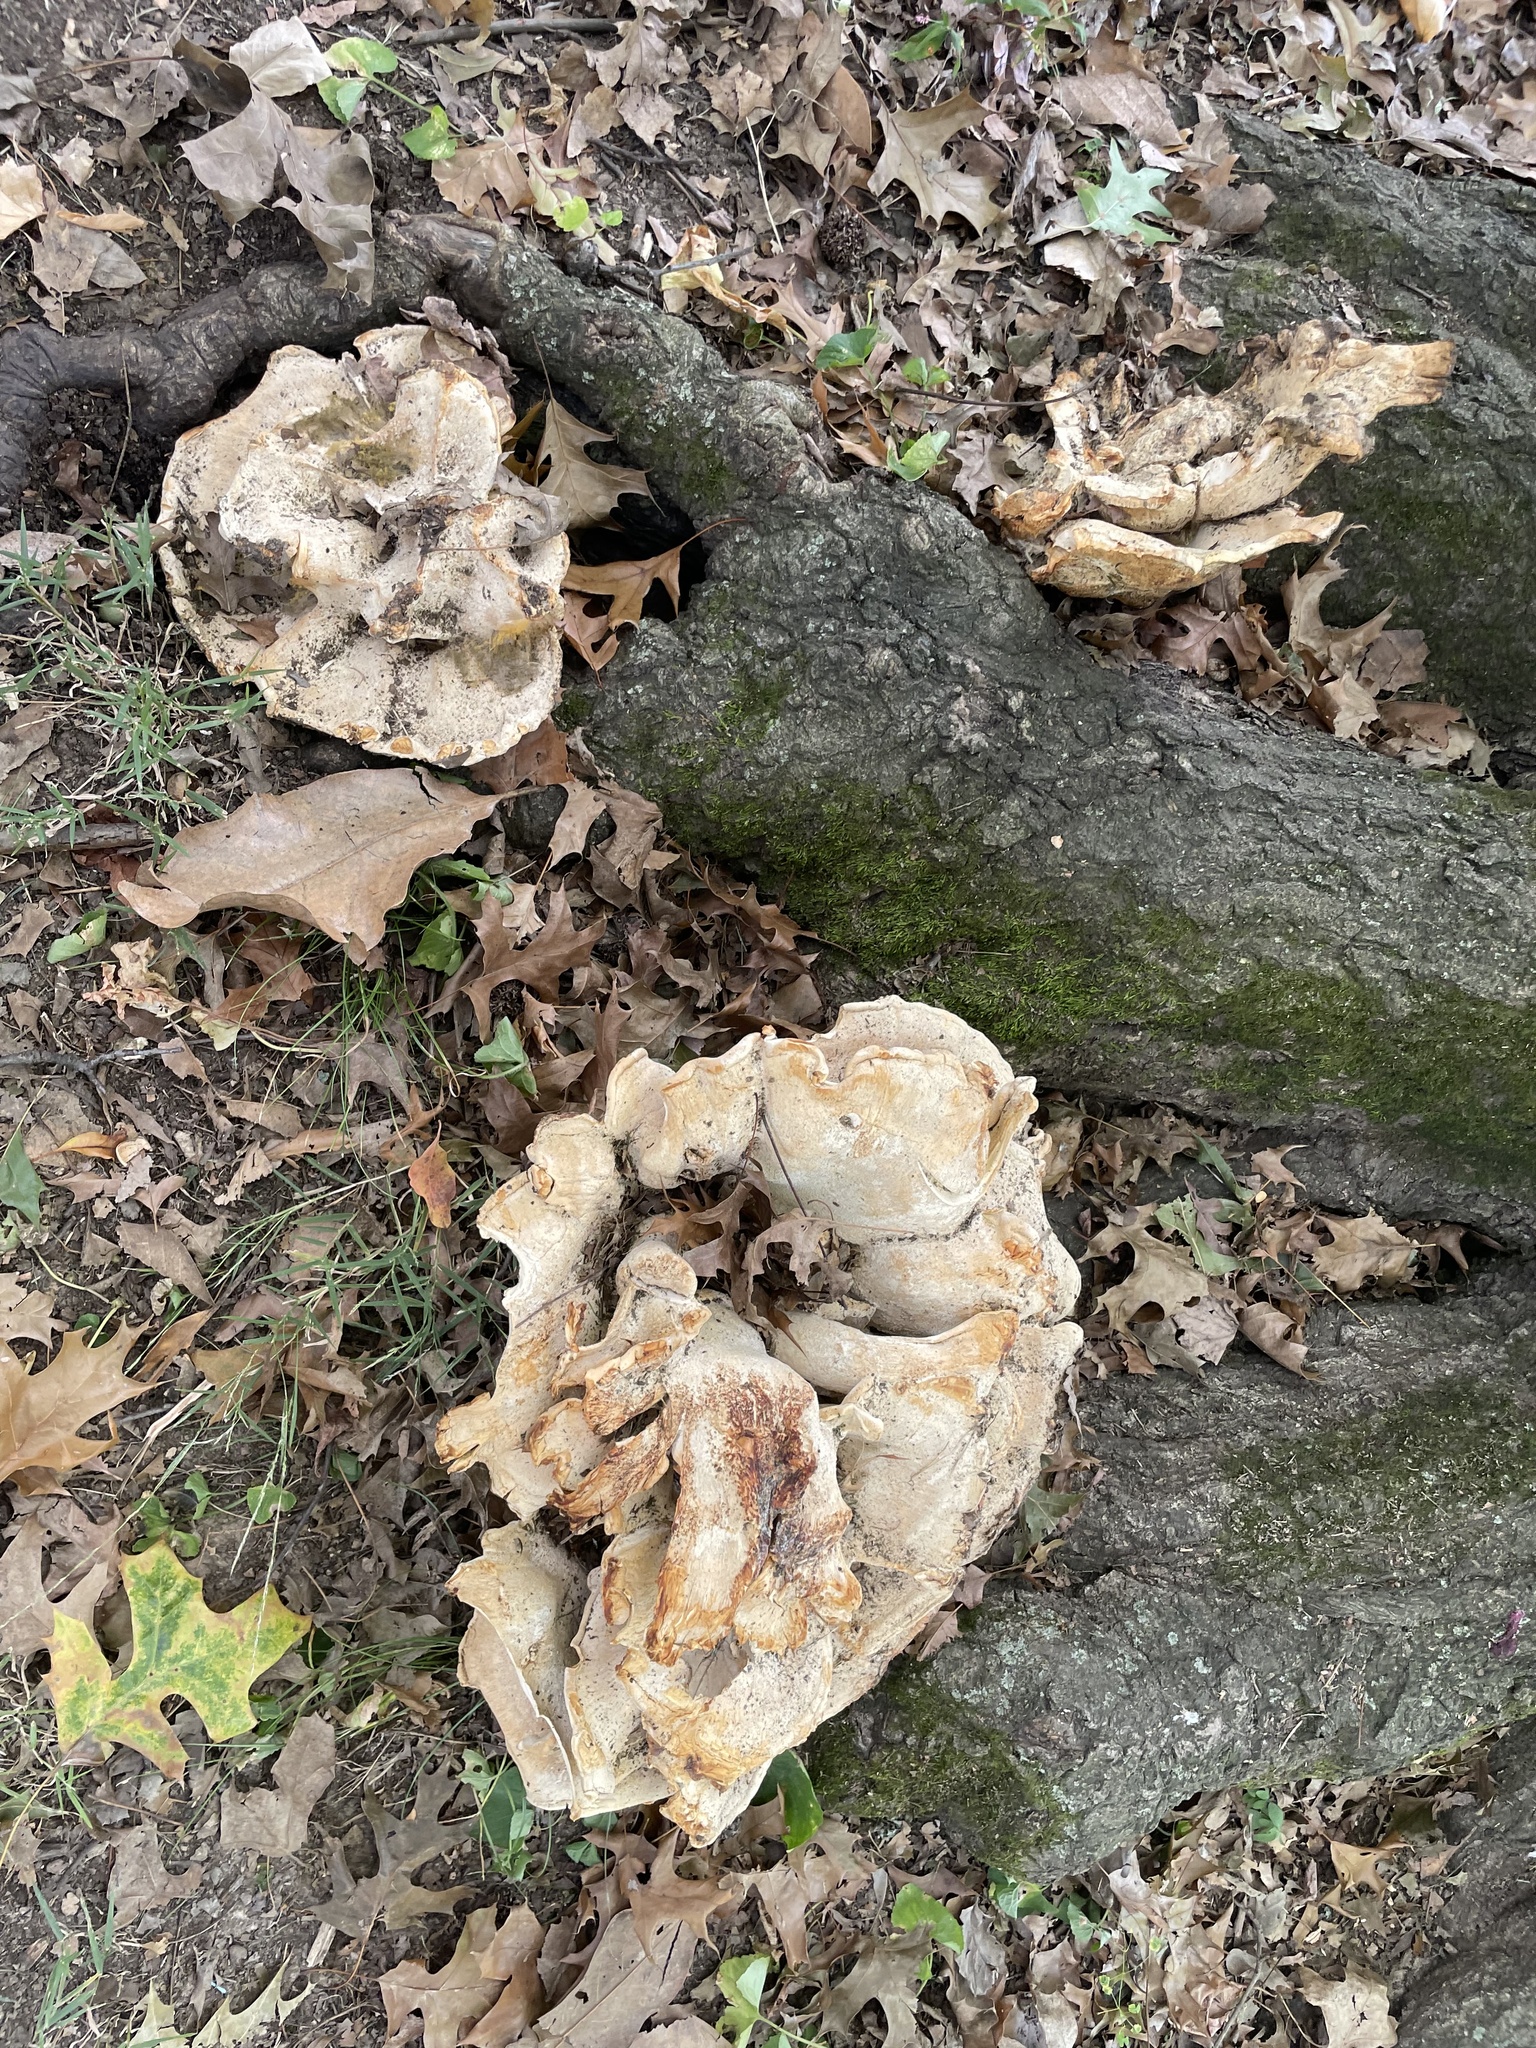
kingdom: Fungi
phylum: Basidiomycota
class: Agaricomycetes
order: Russulales
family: Bondarzewiaceae
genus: Bondarzewia
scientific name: Bondarzewia berkeleyi
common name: Berkeley's polypore
